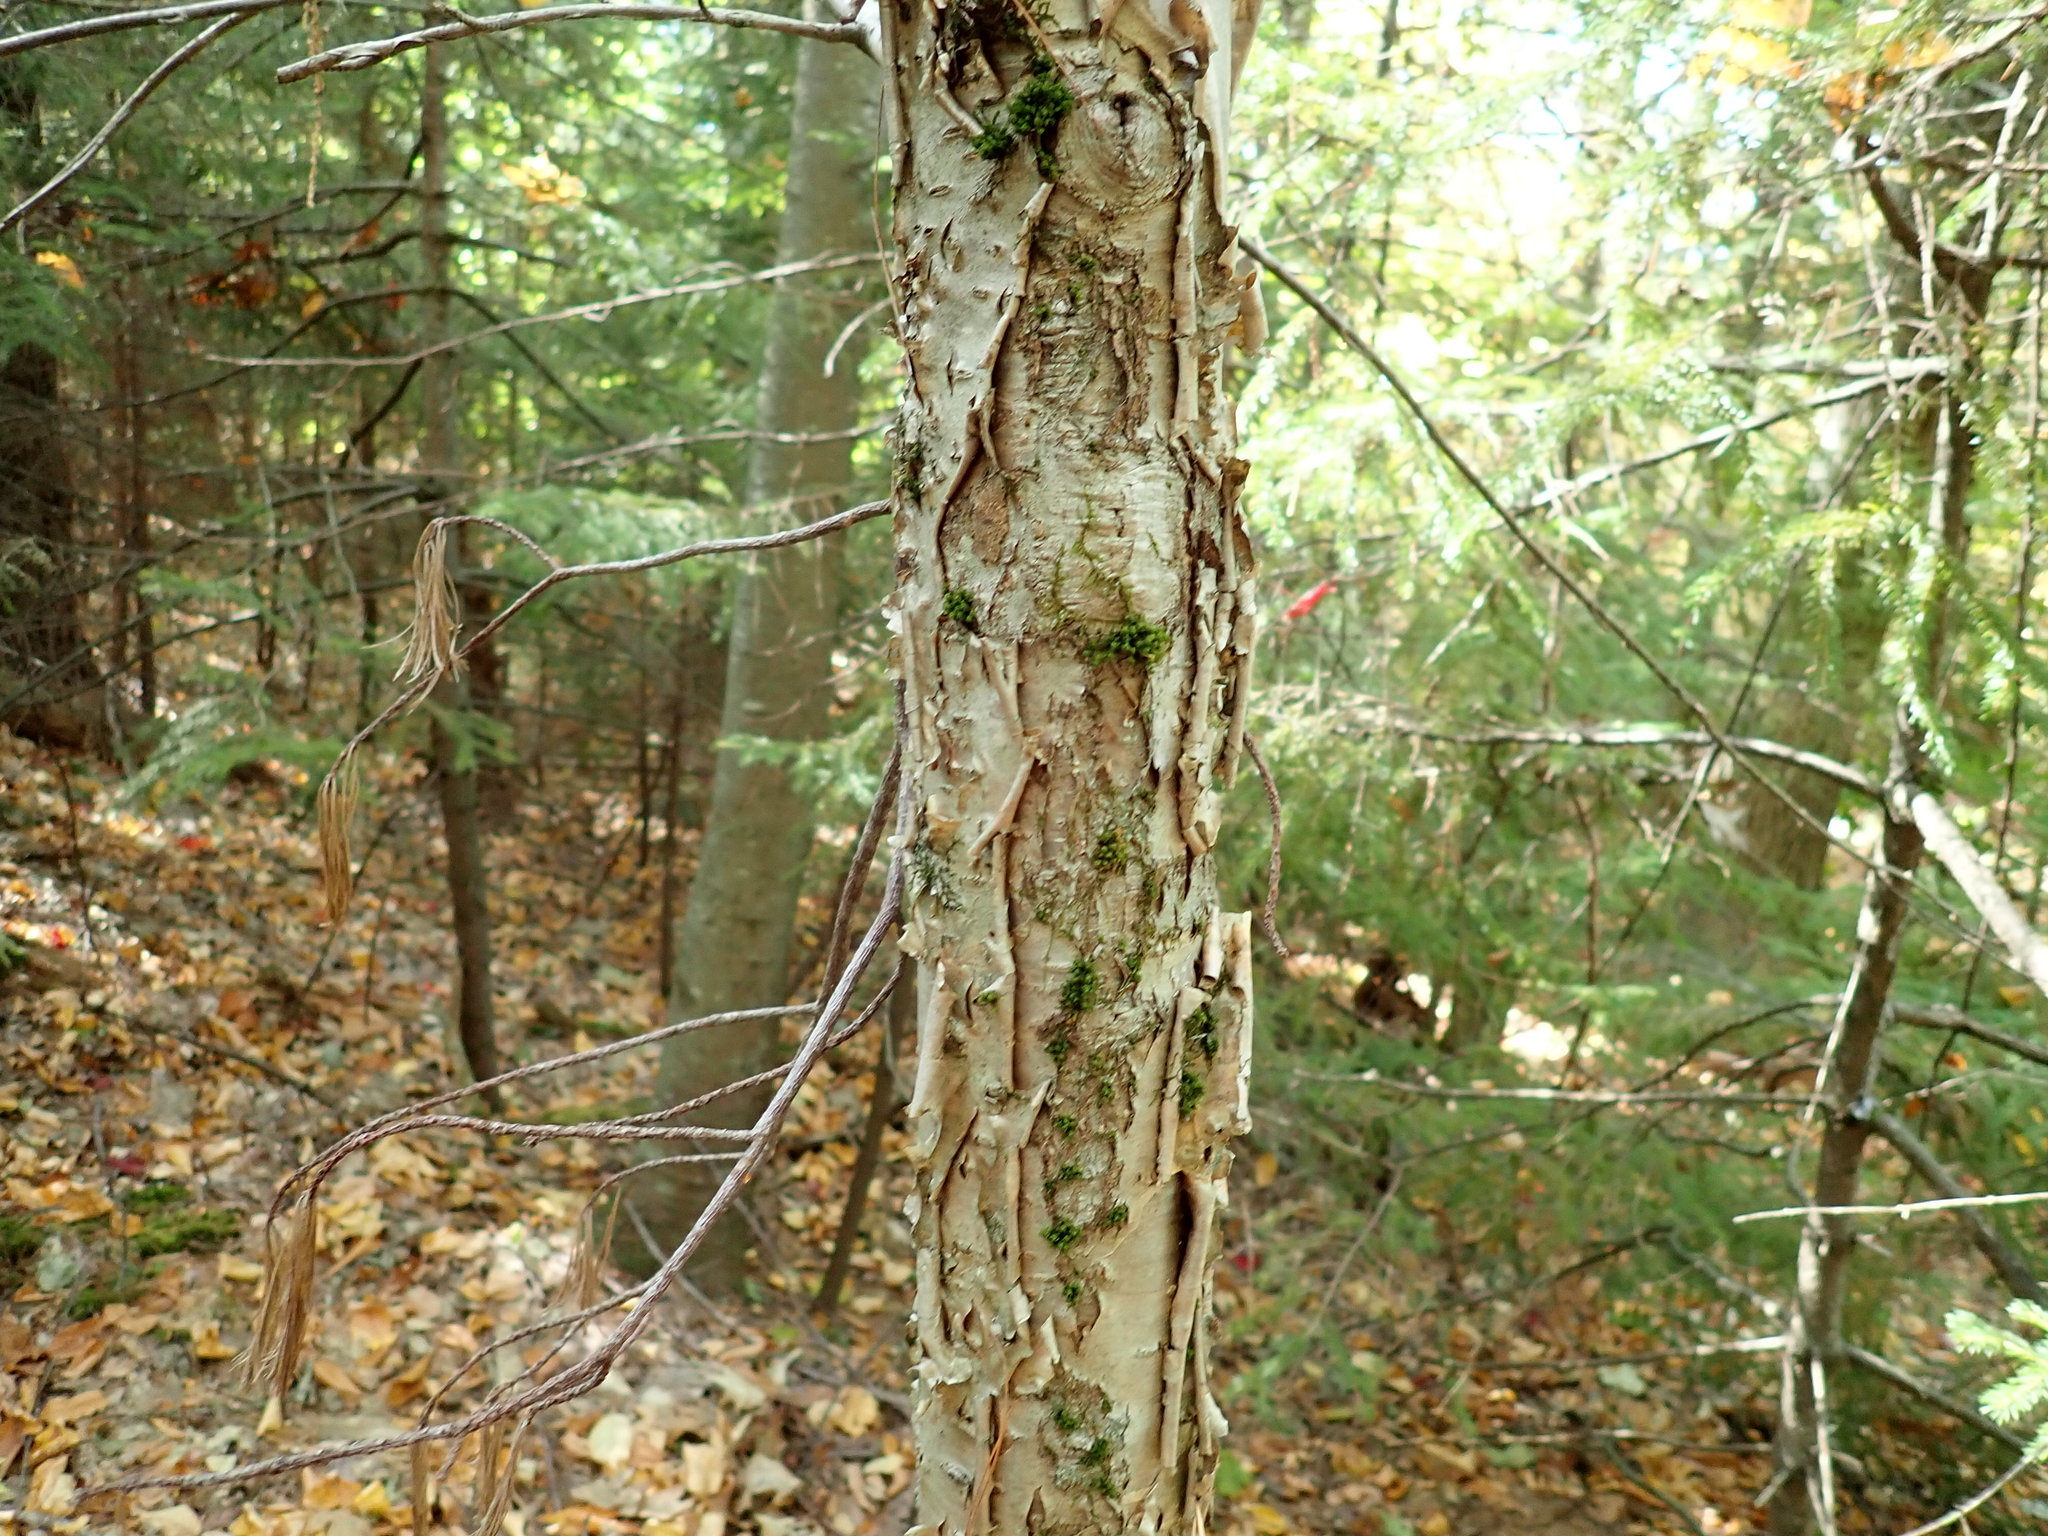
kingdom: Plantae
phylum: Tracheophyta
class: Magnoliopsida
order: Fagales
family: Betulaceae
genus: Betula
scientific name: Betula alleghaniensis
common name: Yellow birch
